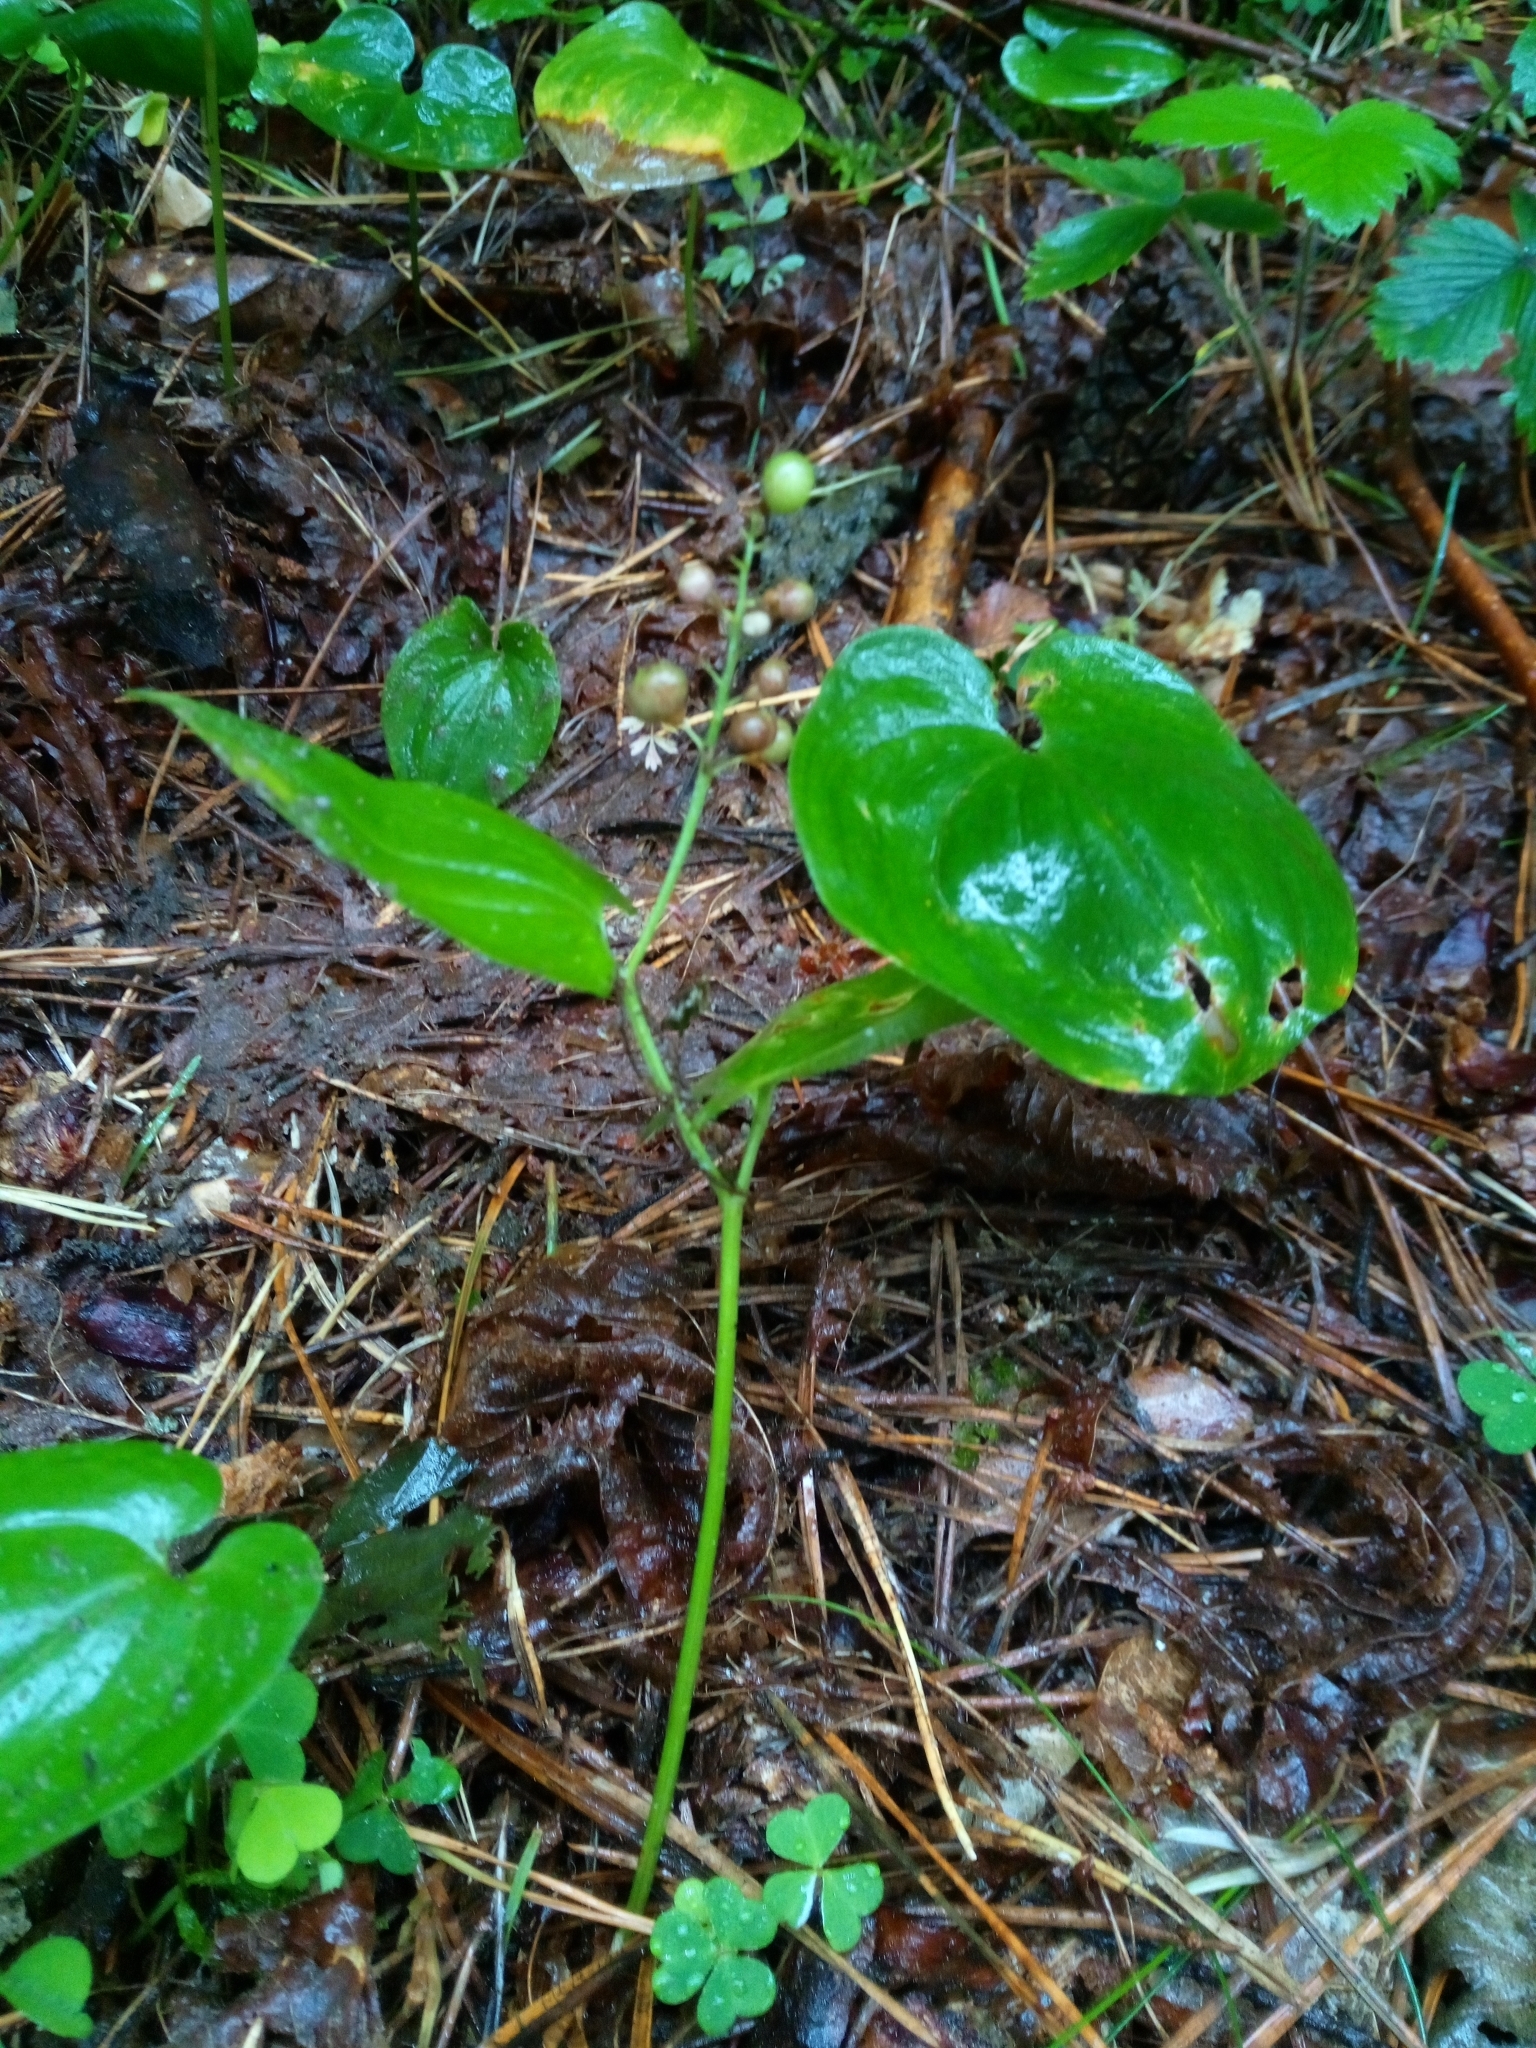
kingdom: Plantae
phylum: Tracheophyta
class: Liliopsida
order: Asparagales
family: Asparagaceae
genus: Maianthemum
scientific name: Maianthemum bifolium
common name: May lily
